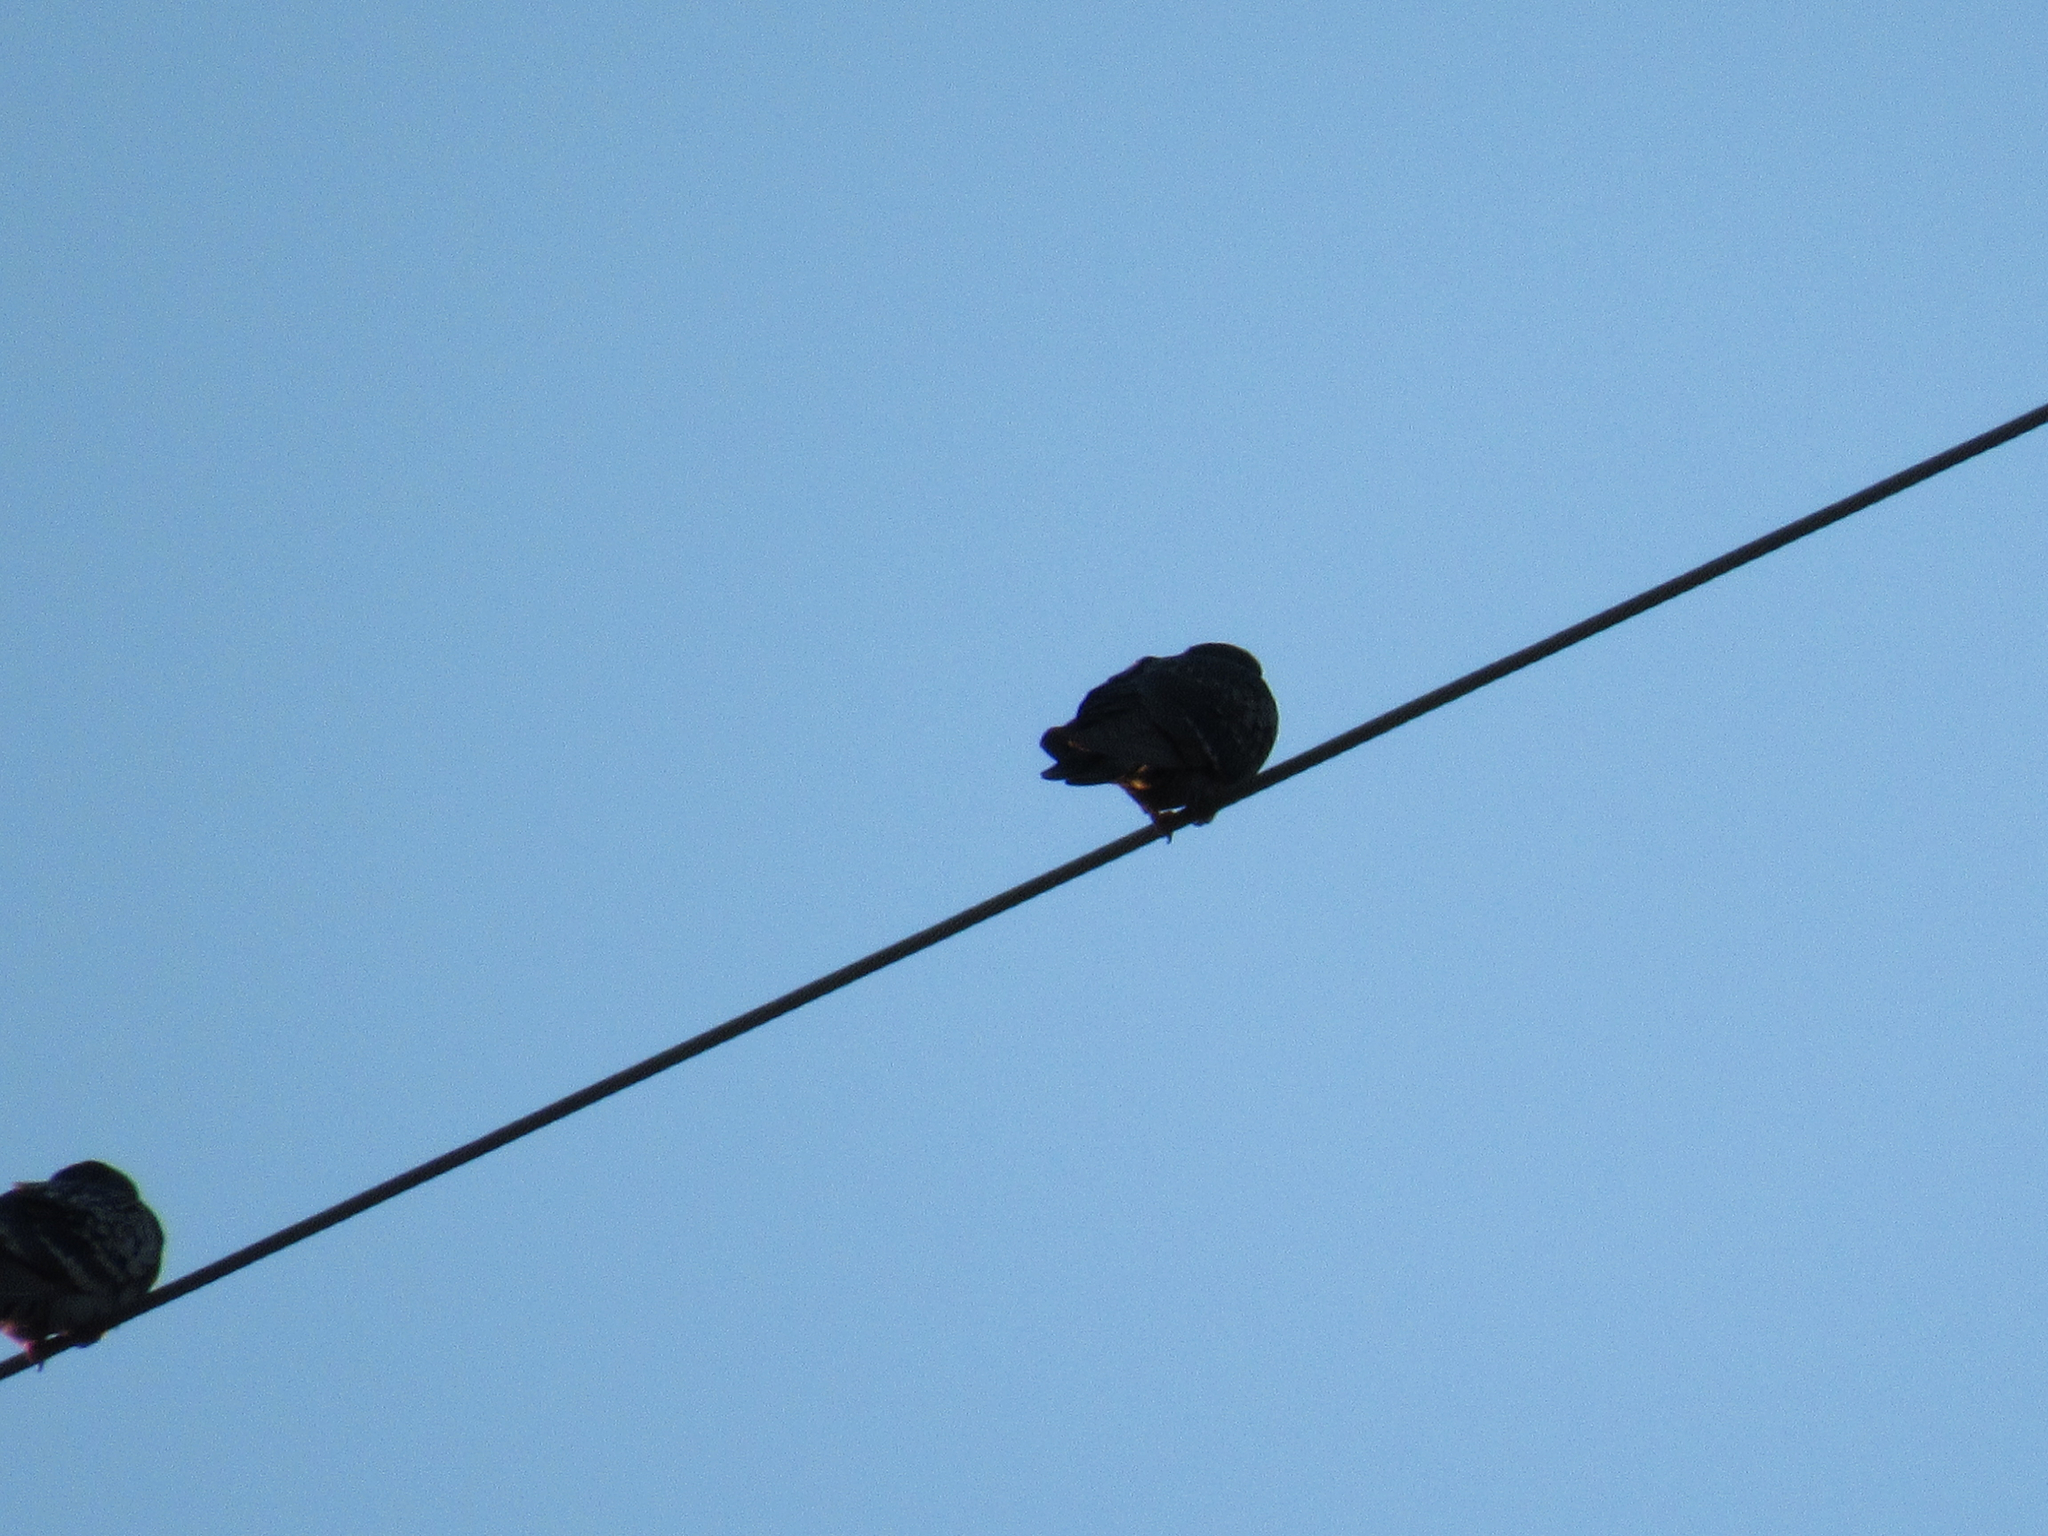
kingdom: Animalia
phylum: Chordata
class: Aves
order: Columbiformes
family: Columbidae
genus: Columba
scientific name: Columba livia
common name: Rock pigeon
